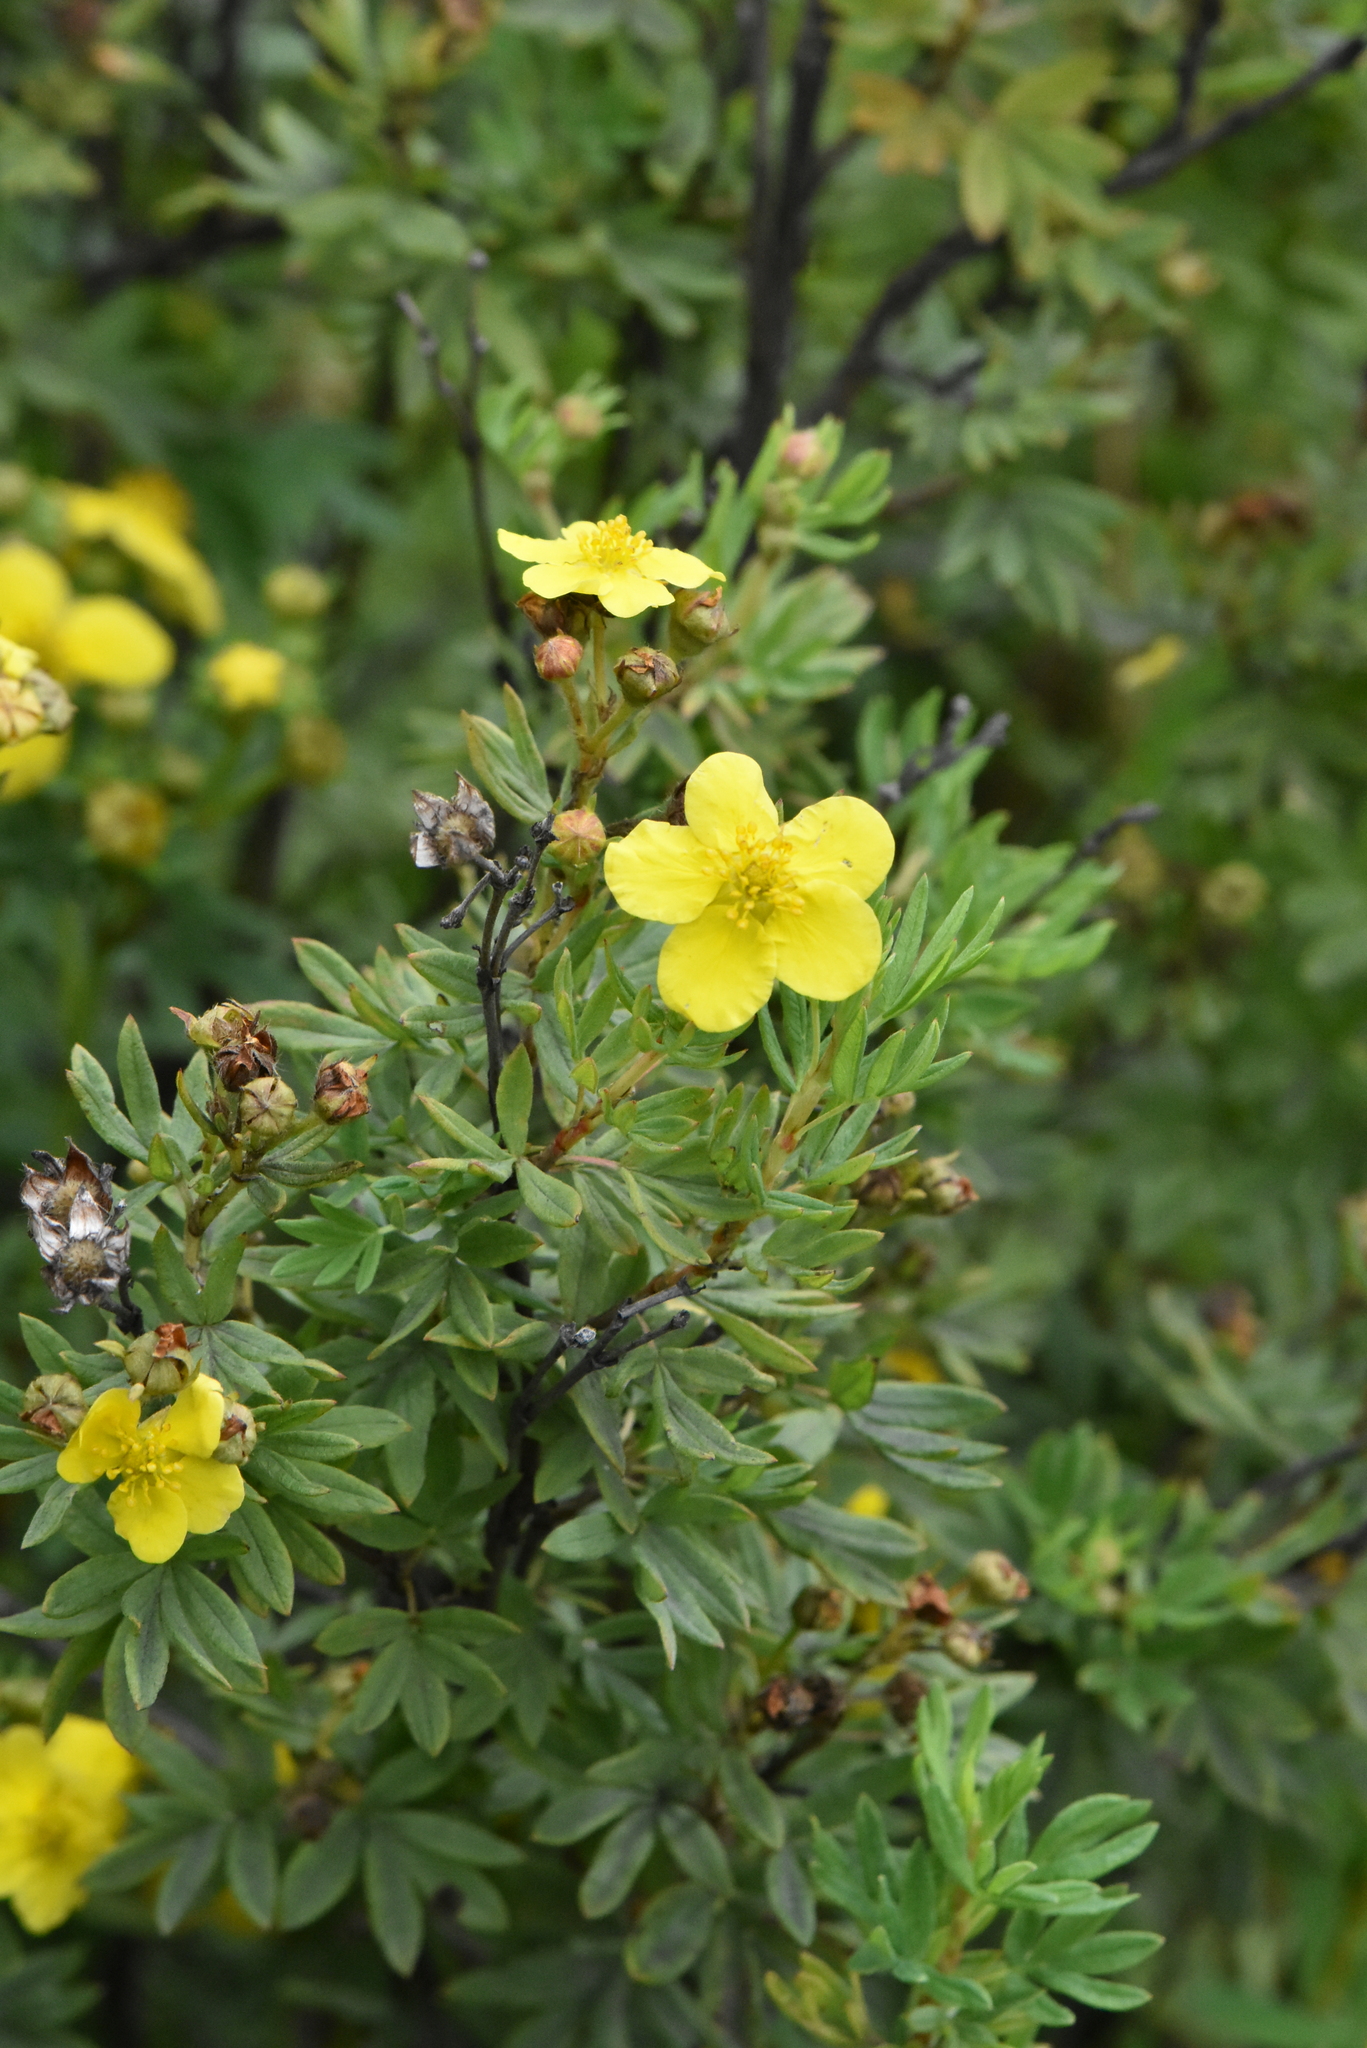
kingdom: Plantae
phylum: Tracheophyta
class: Magnoliopsida
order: Rosales
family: Rosaceae
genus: Dasiphora
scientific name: Dasiphora fruticosa
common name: Shrubby cinquefoil
